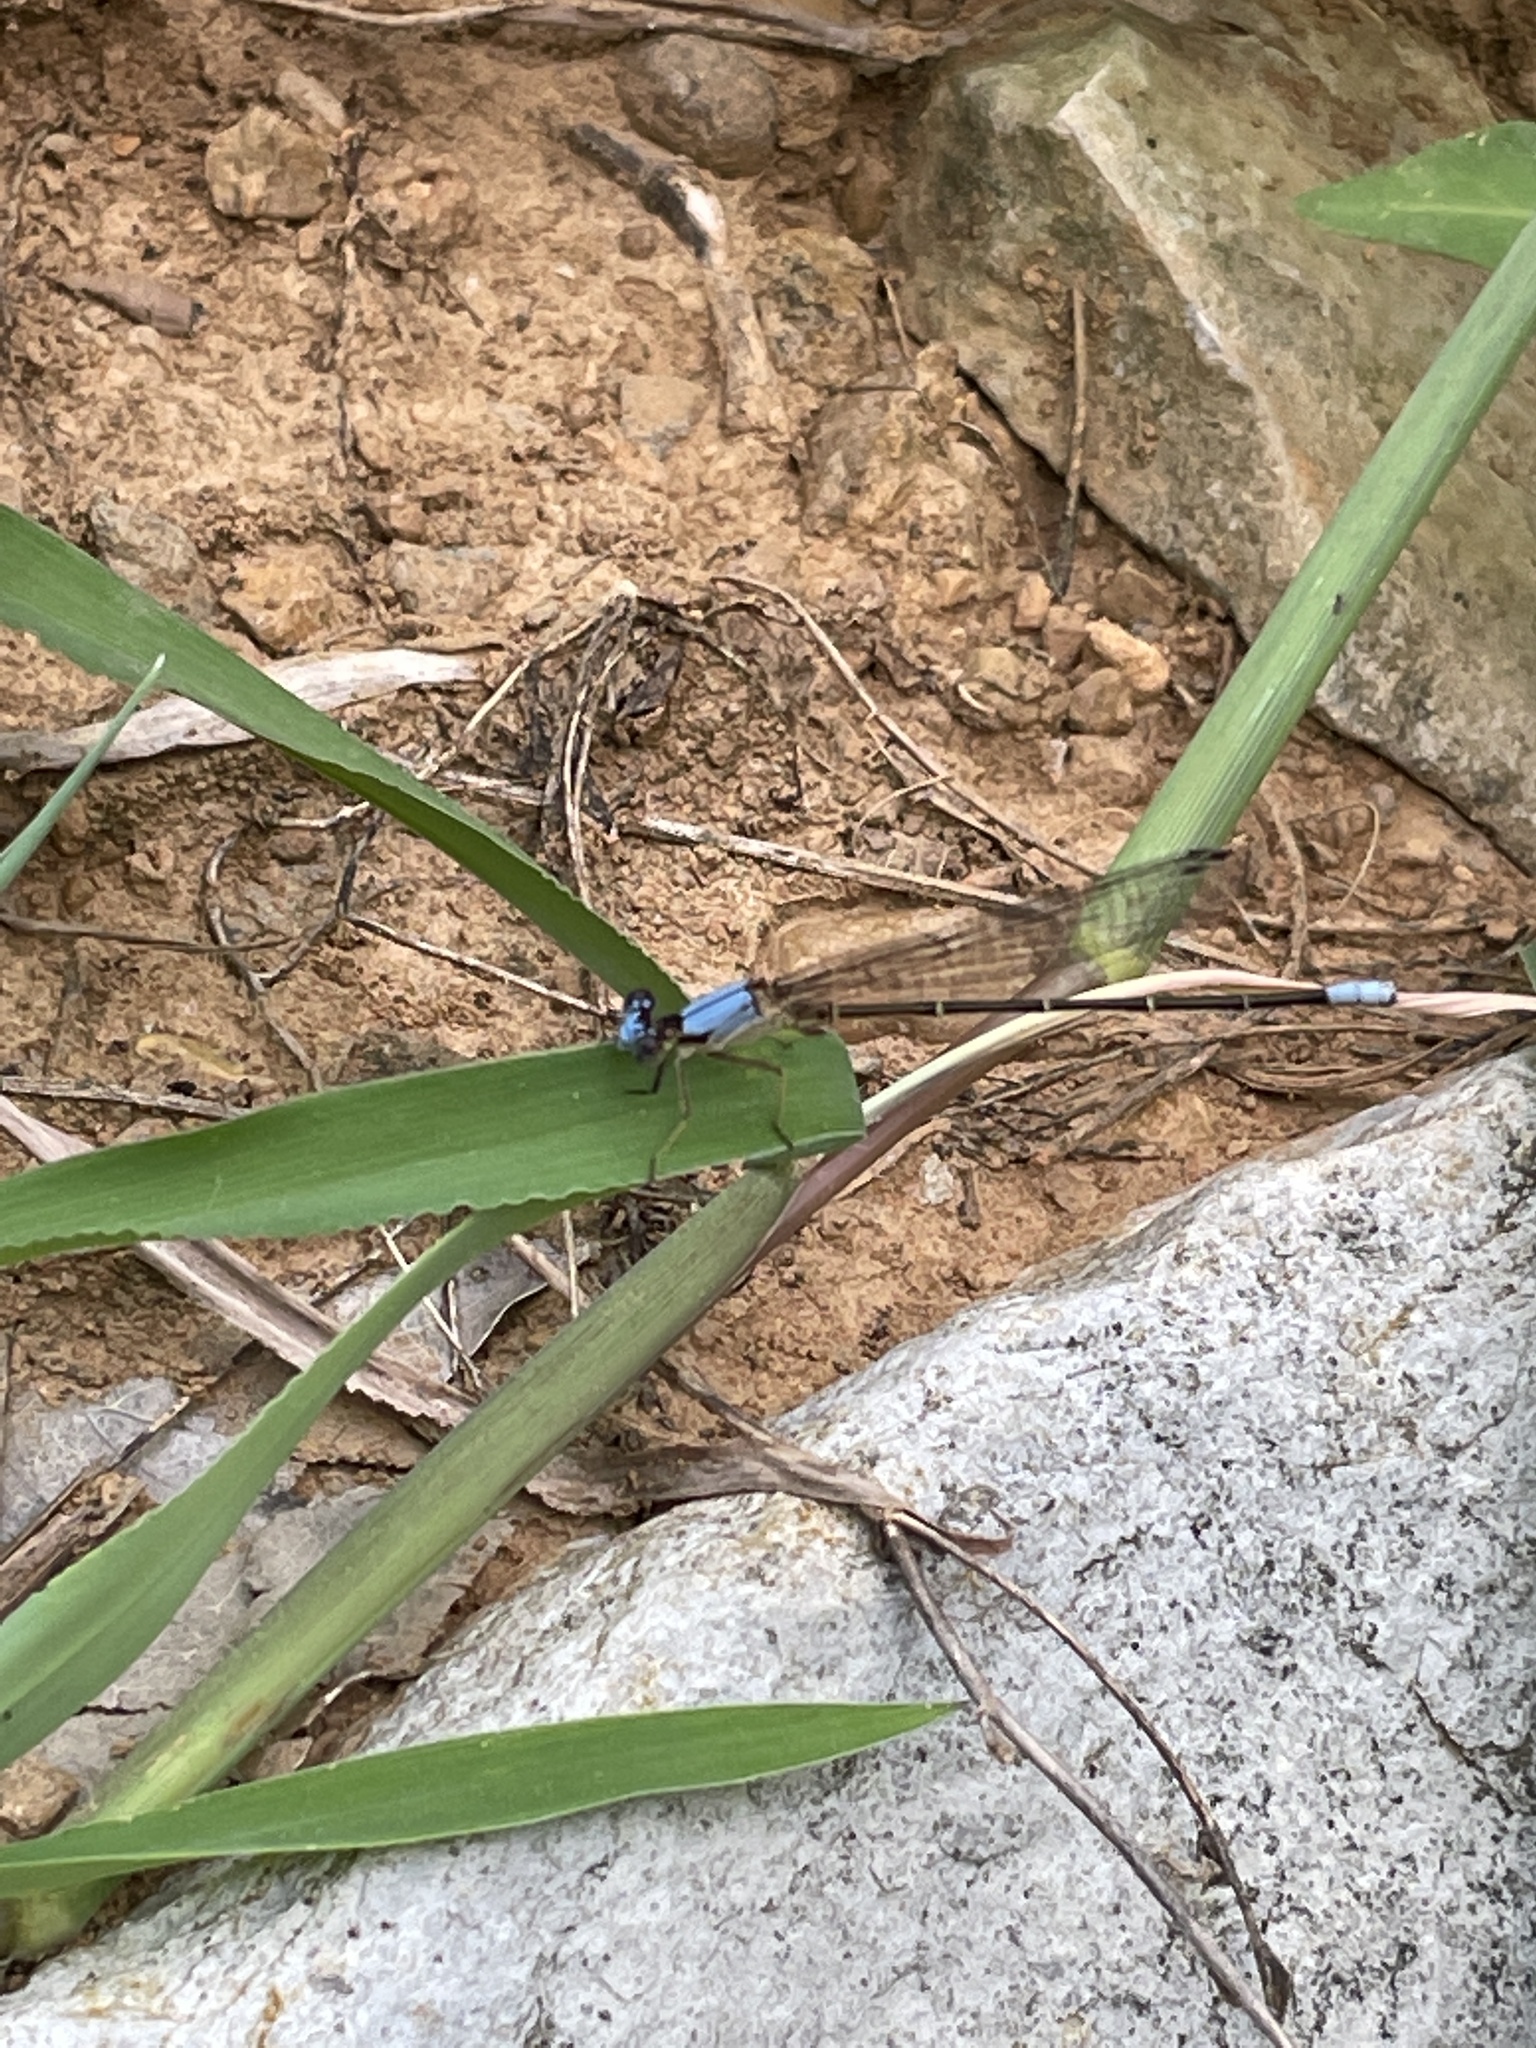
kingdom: Animalia
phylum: Arthropoda
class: Insecta
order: Odonata
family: Coenagrionidae
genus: Argia
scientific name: Argia apicalis
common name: Blue-fronted dancer
